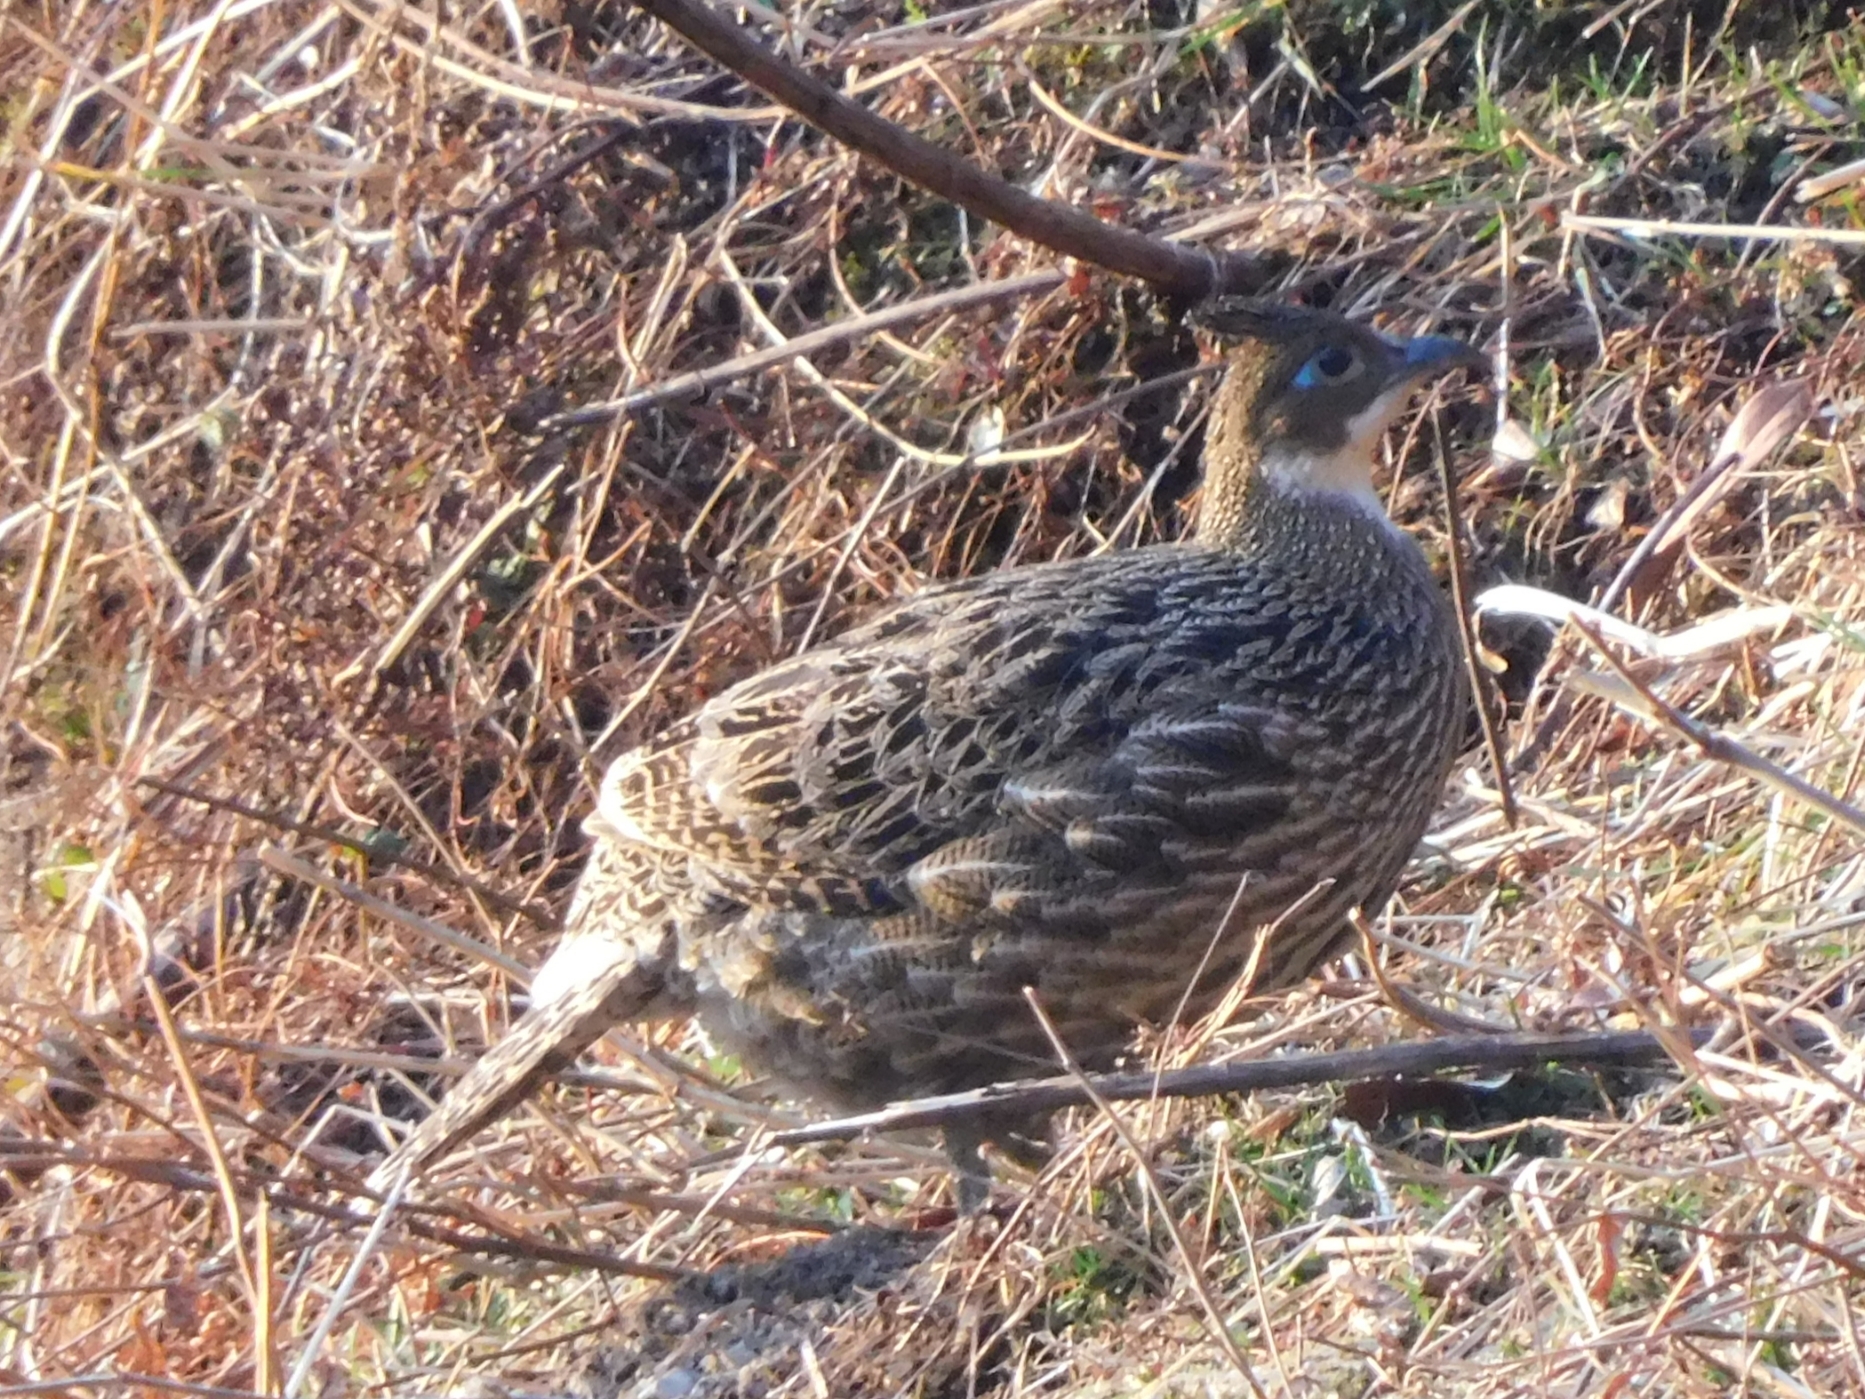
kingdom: Animalia
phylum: Chordata
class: Aves
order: Galliformes
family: Phasianidae
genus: Lophophorus
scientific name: Lophophorus impejanus
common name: Himalayan monal
